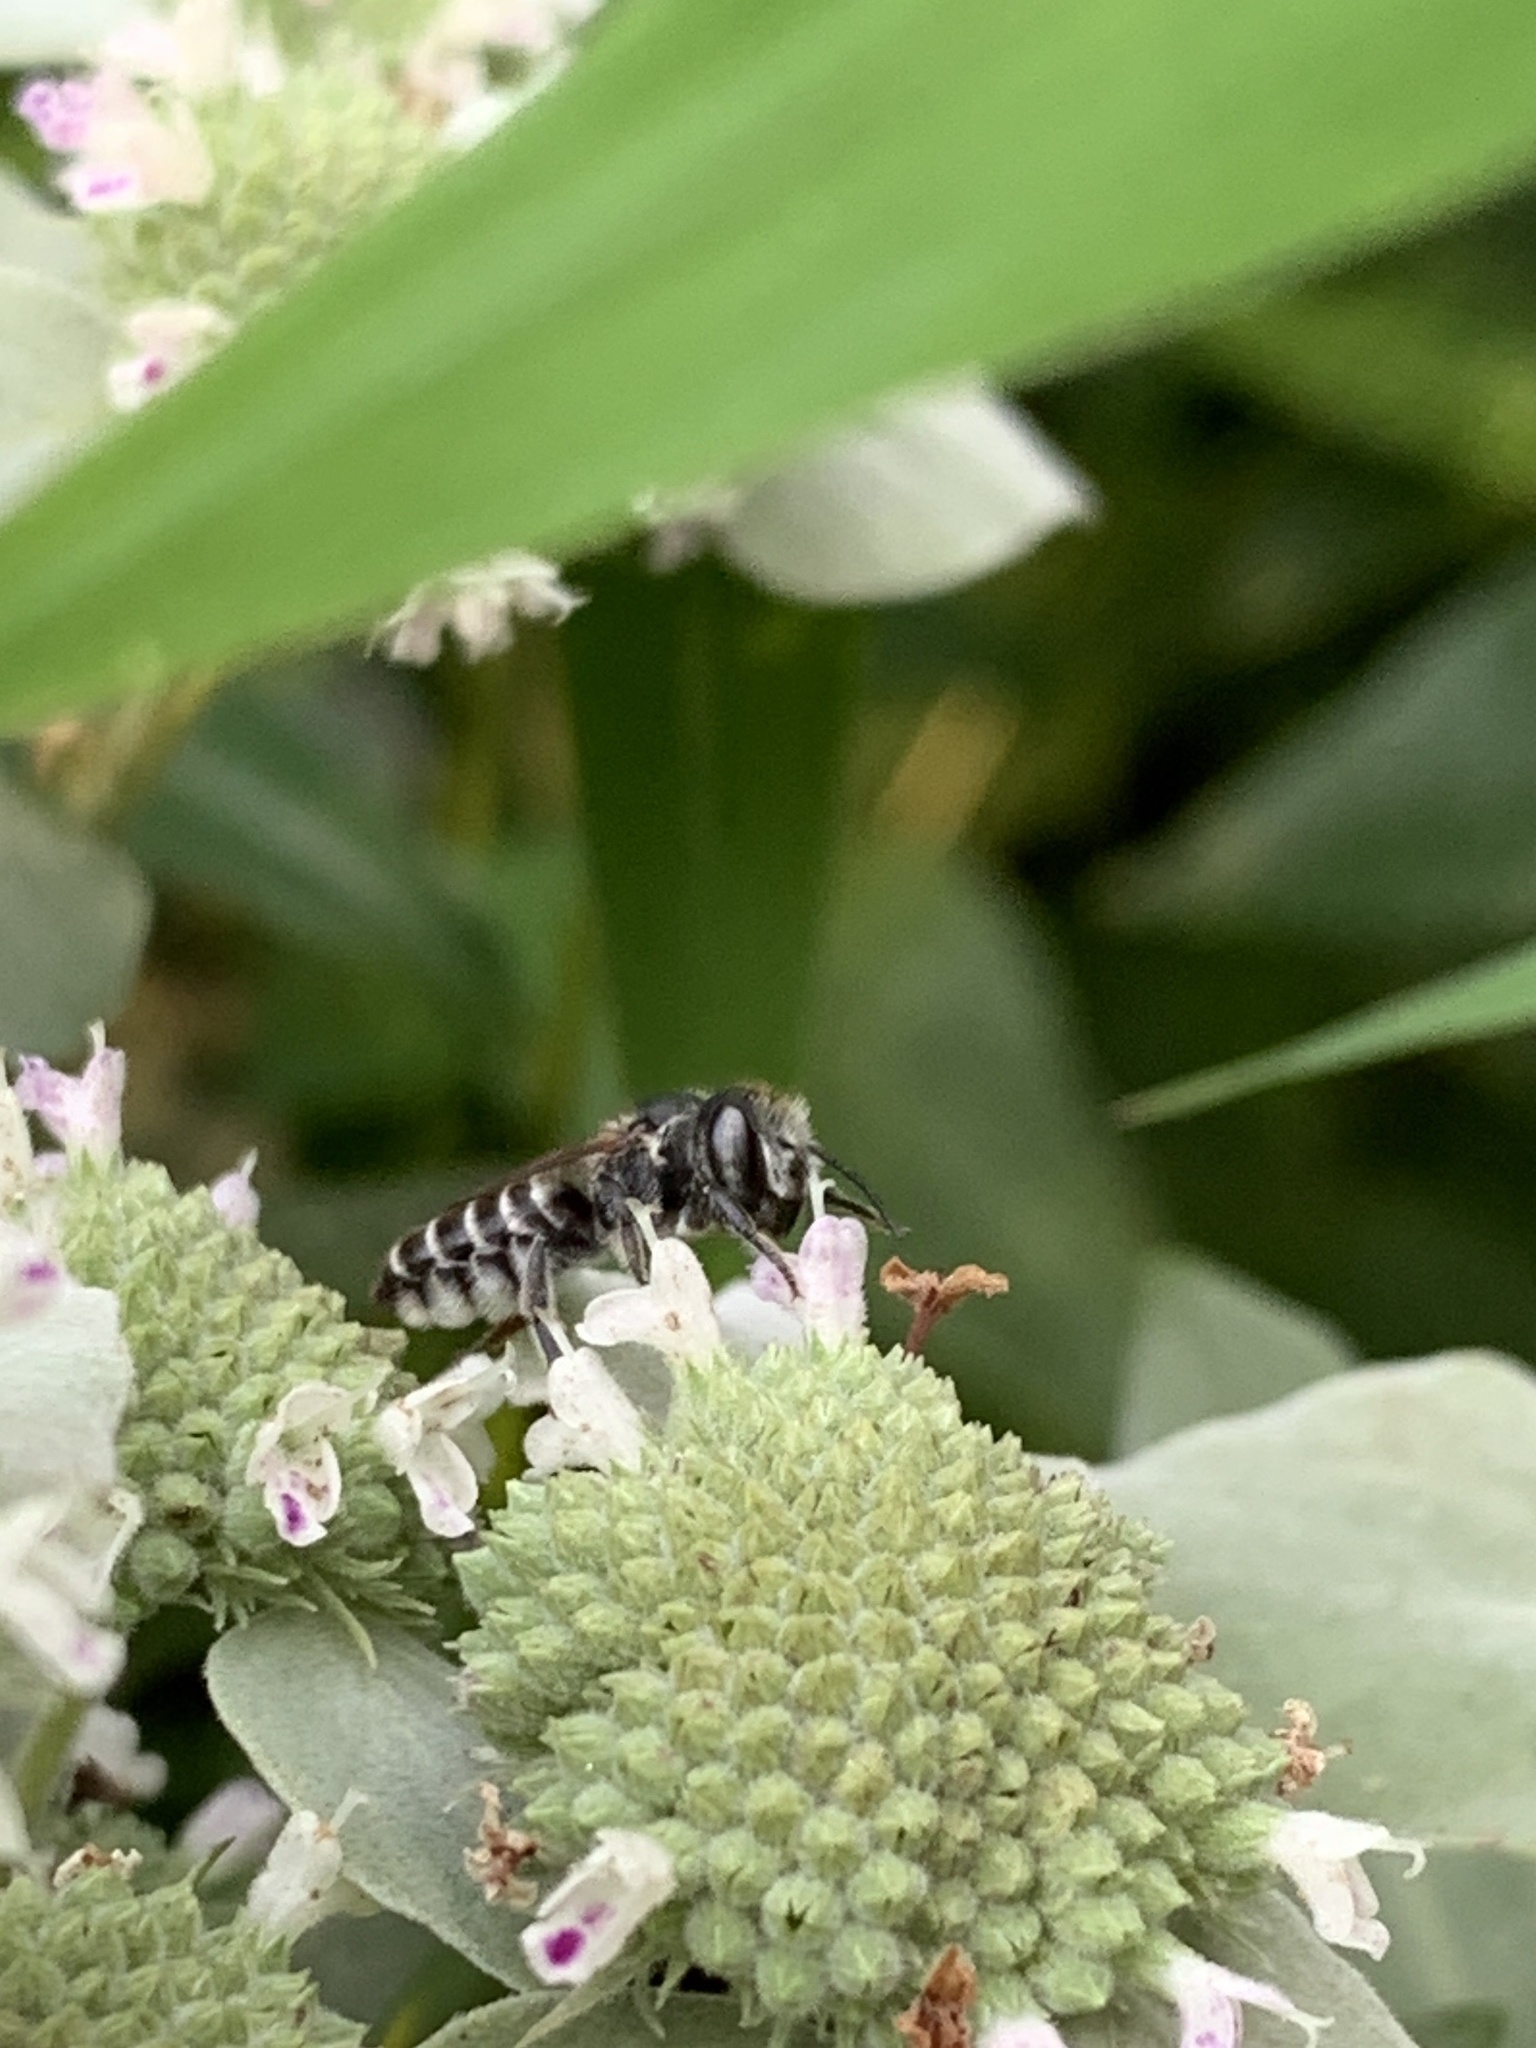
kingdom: Animalia
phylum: Arthropoda
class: Insecta
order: Hymenoptera
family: Megachilidae
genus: Megachile
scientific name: Megachile rotundata
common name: Alfalfa leafcutting bee
